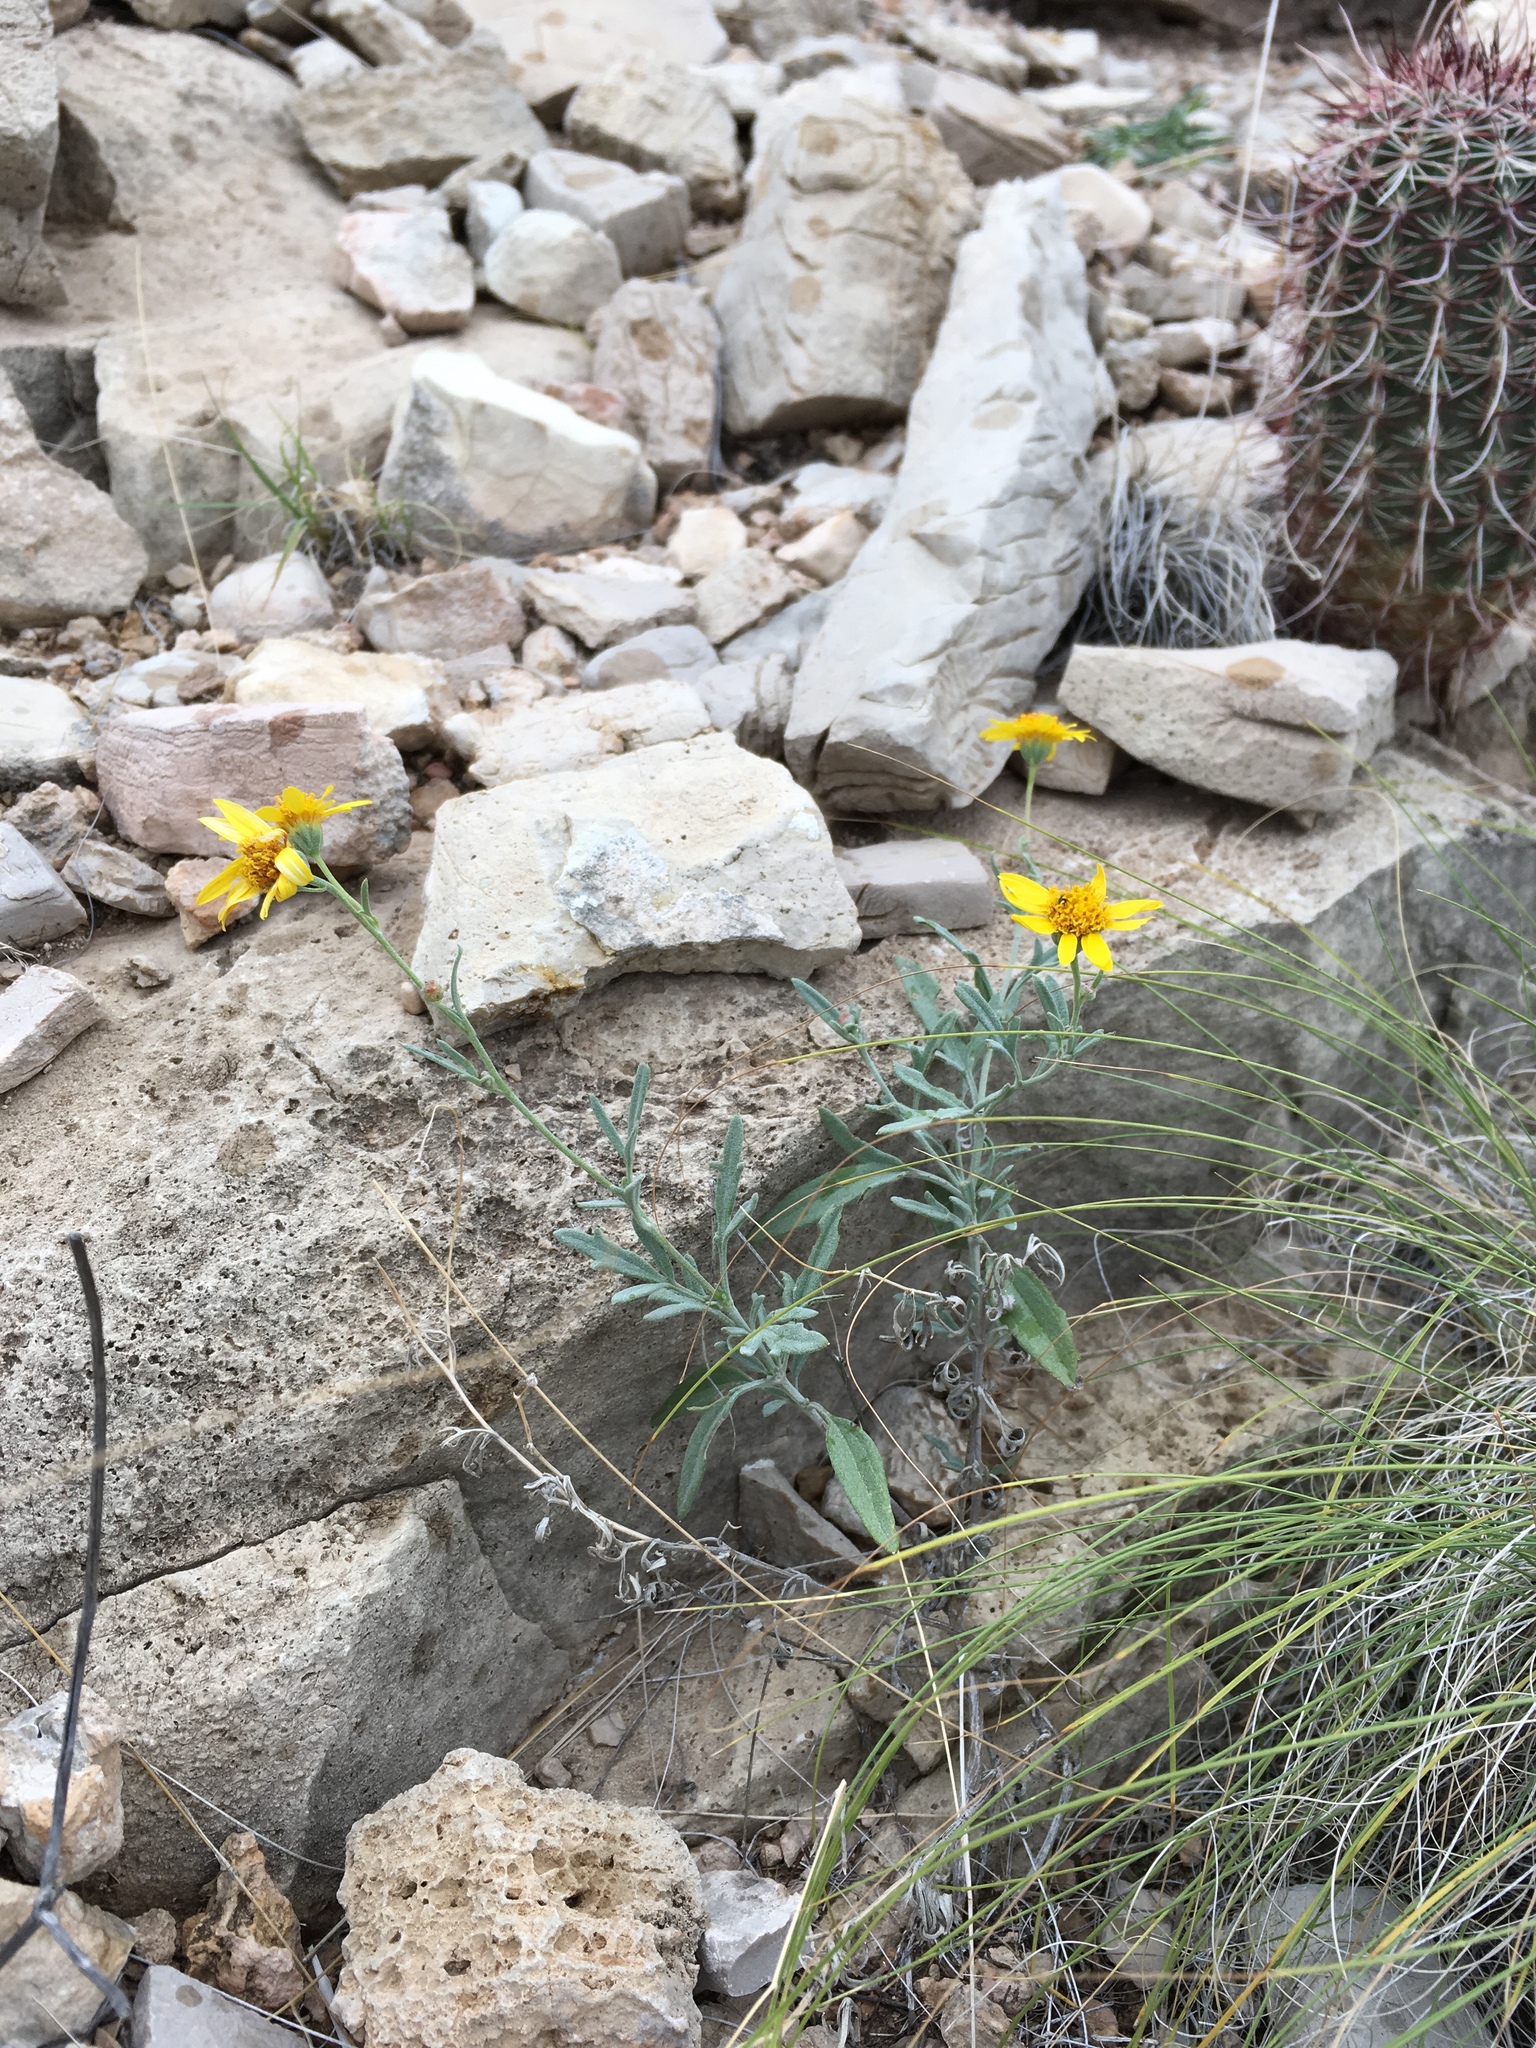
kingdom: Plantae
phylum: Tracheophyta
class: Magnoliopsida
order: Asterales
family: Asteraceae
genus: Picradeniopsis
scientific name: Picradeniopsis absinthifolia
